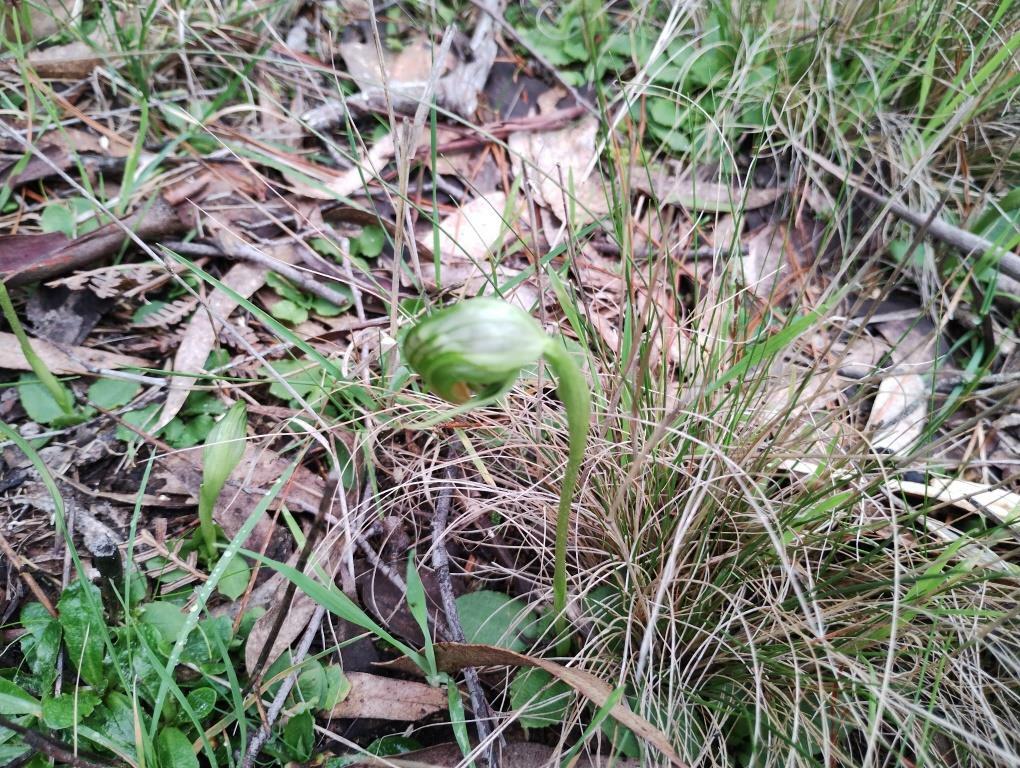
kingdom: Plantae
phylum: Tracheophyta
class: Liliopsida
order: Asparagales
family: Orchidaceae
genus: Pterostylis
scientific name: Pterostylis nutans
